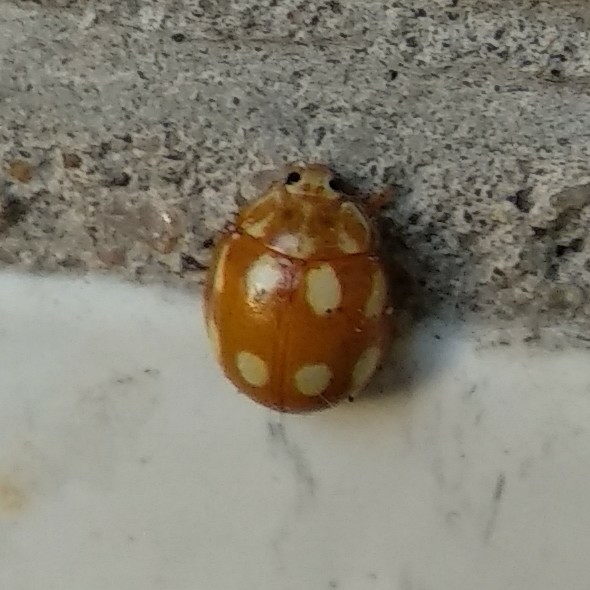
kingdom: Animalia
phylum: Arthropoda
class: Insecta
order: Coleoptera
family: Coccinellidae
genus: Calvia
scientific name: Calvia decemguttata
